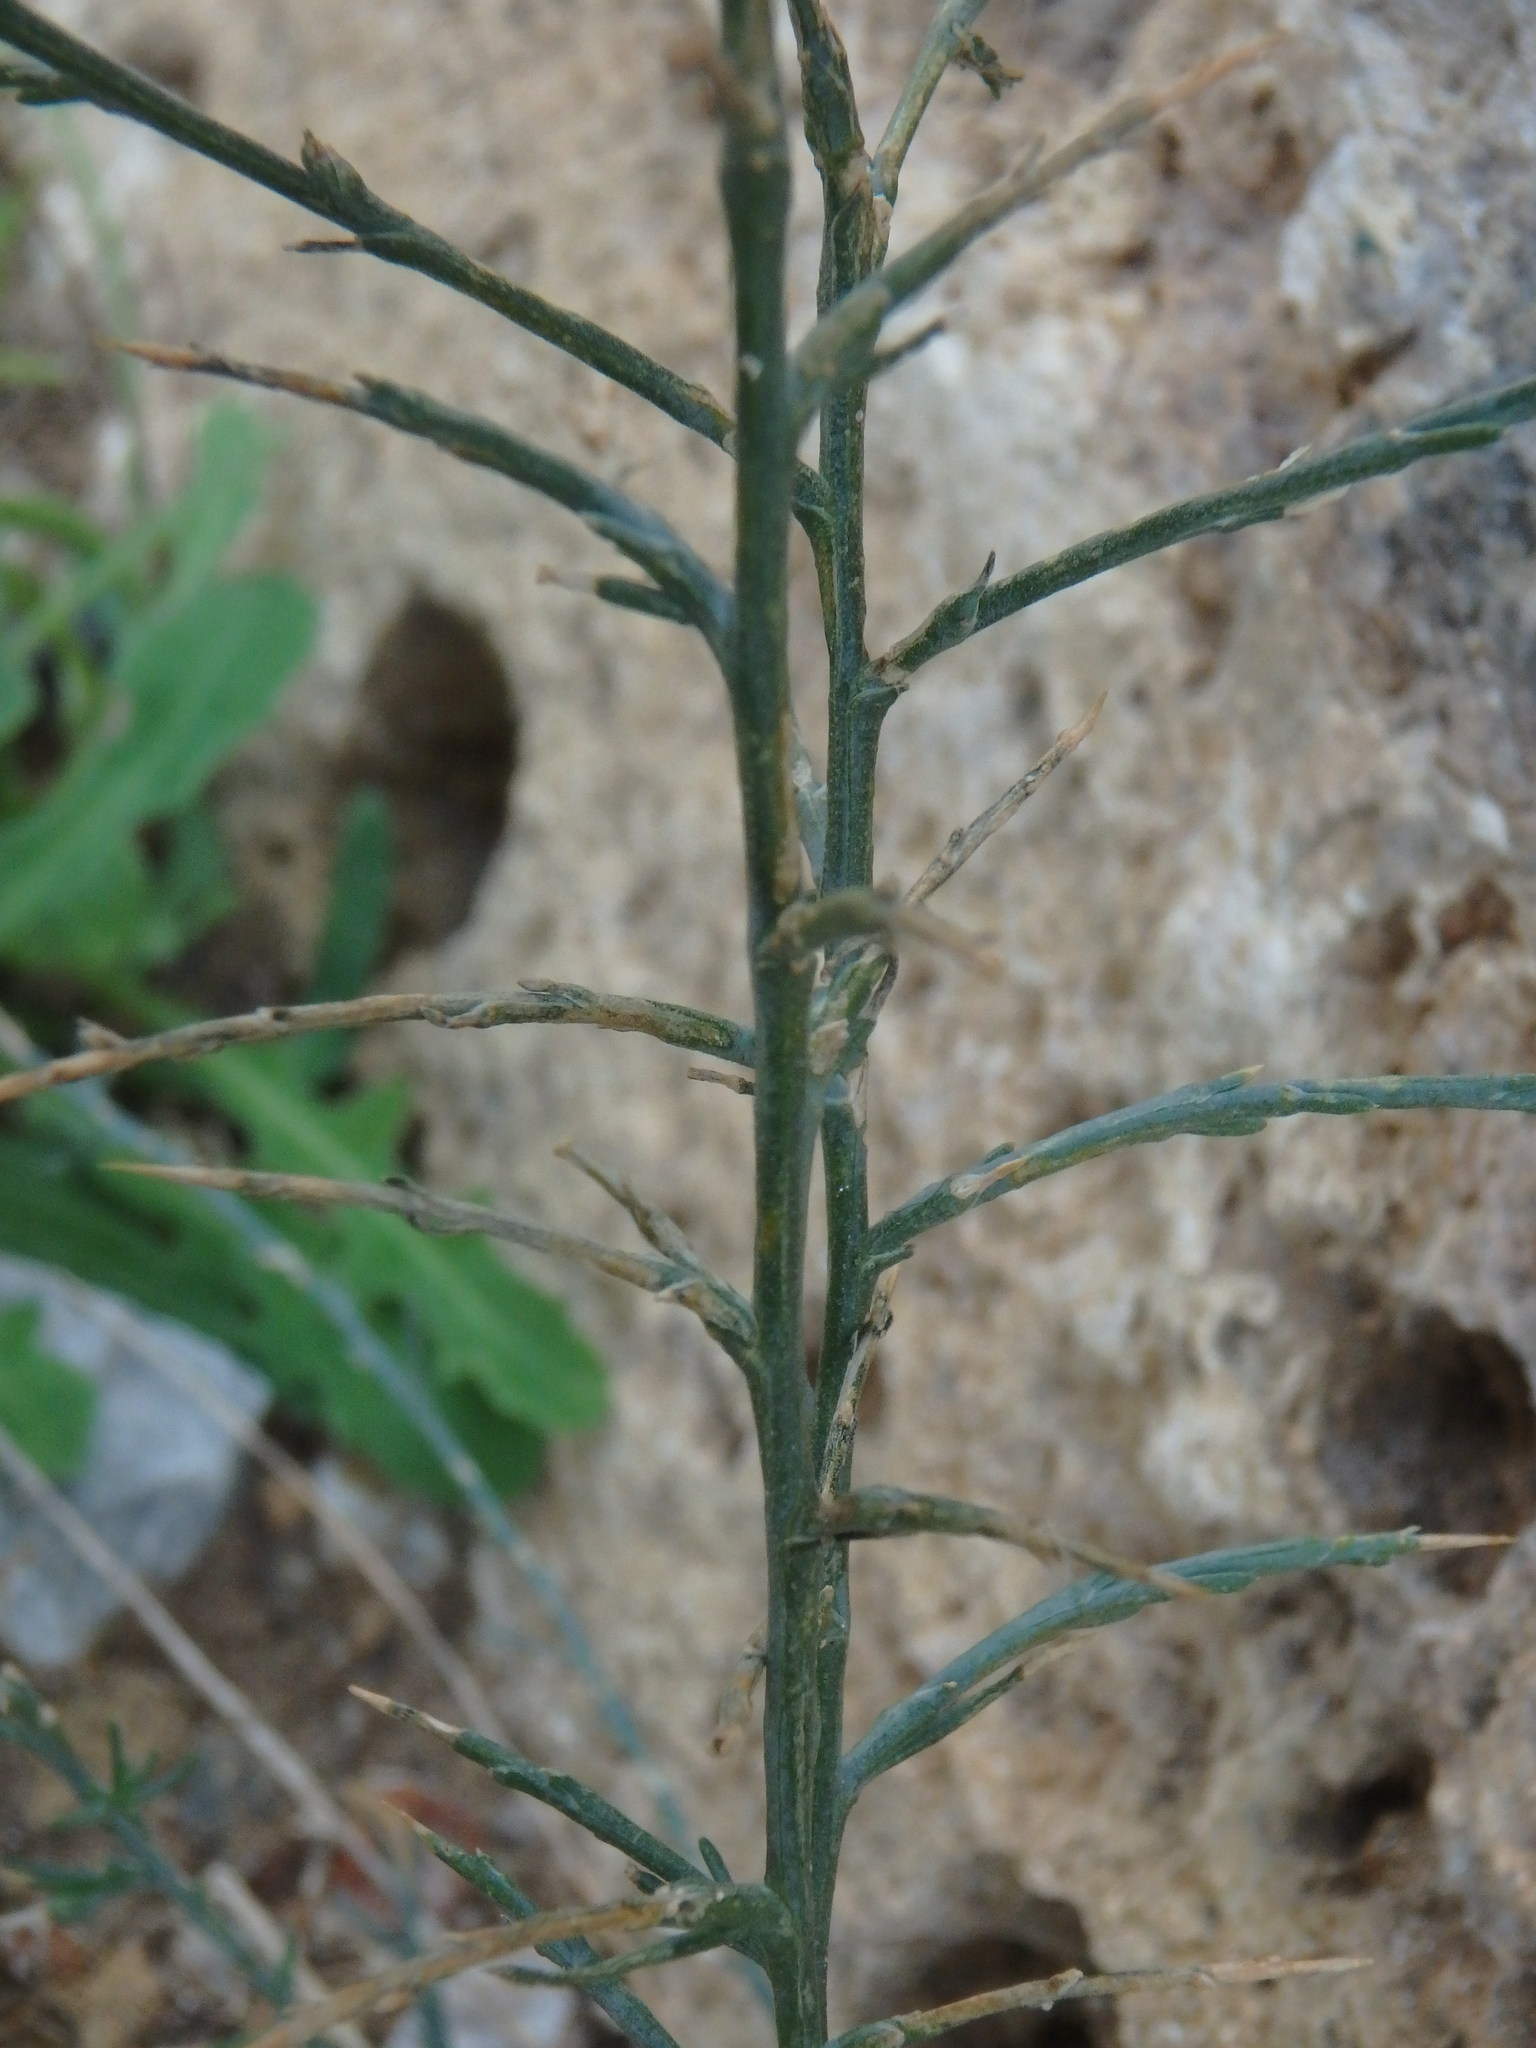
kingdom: Plantae
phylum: Tracheophyta
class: Magnoliopsida
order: Caryophyllales
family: Amaranthaceae
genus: Noaea
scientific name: Noaea mucronata
